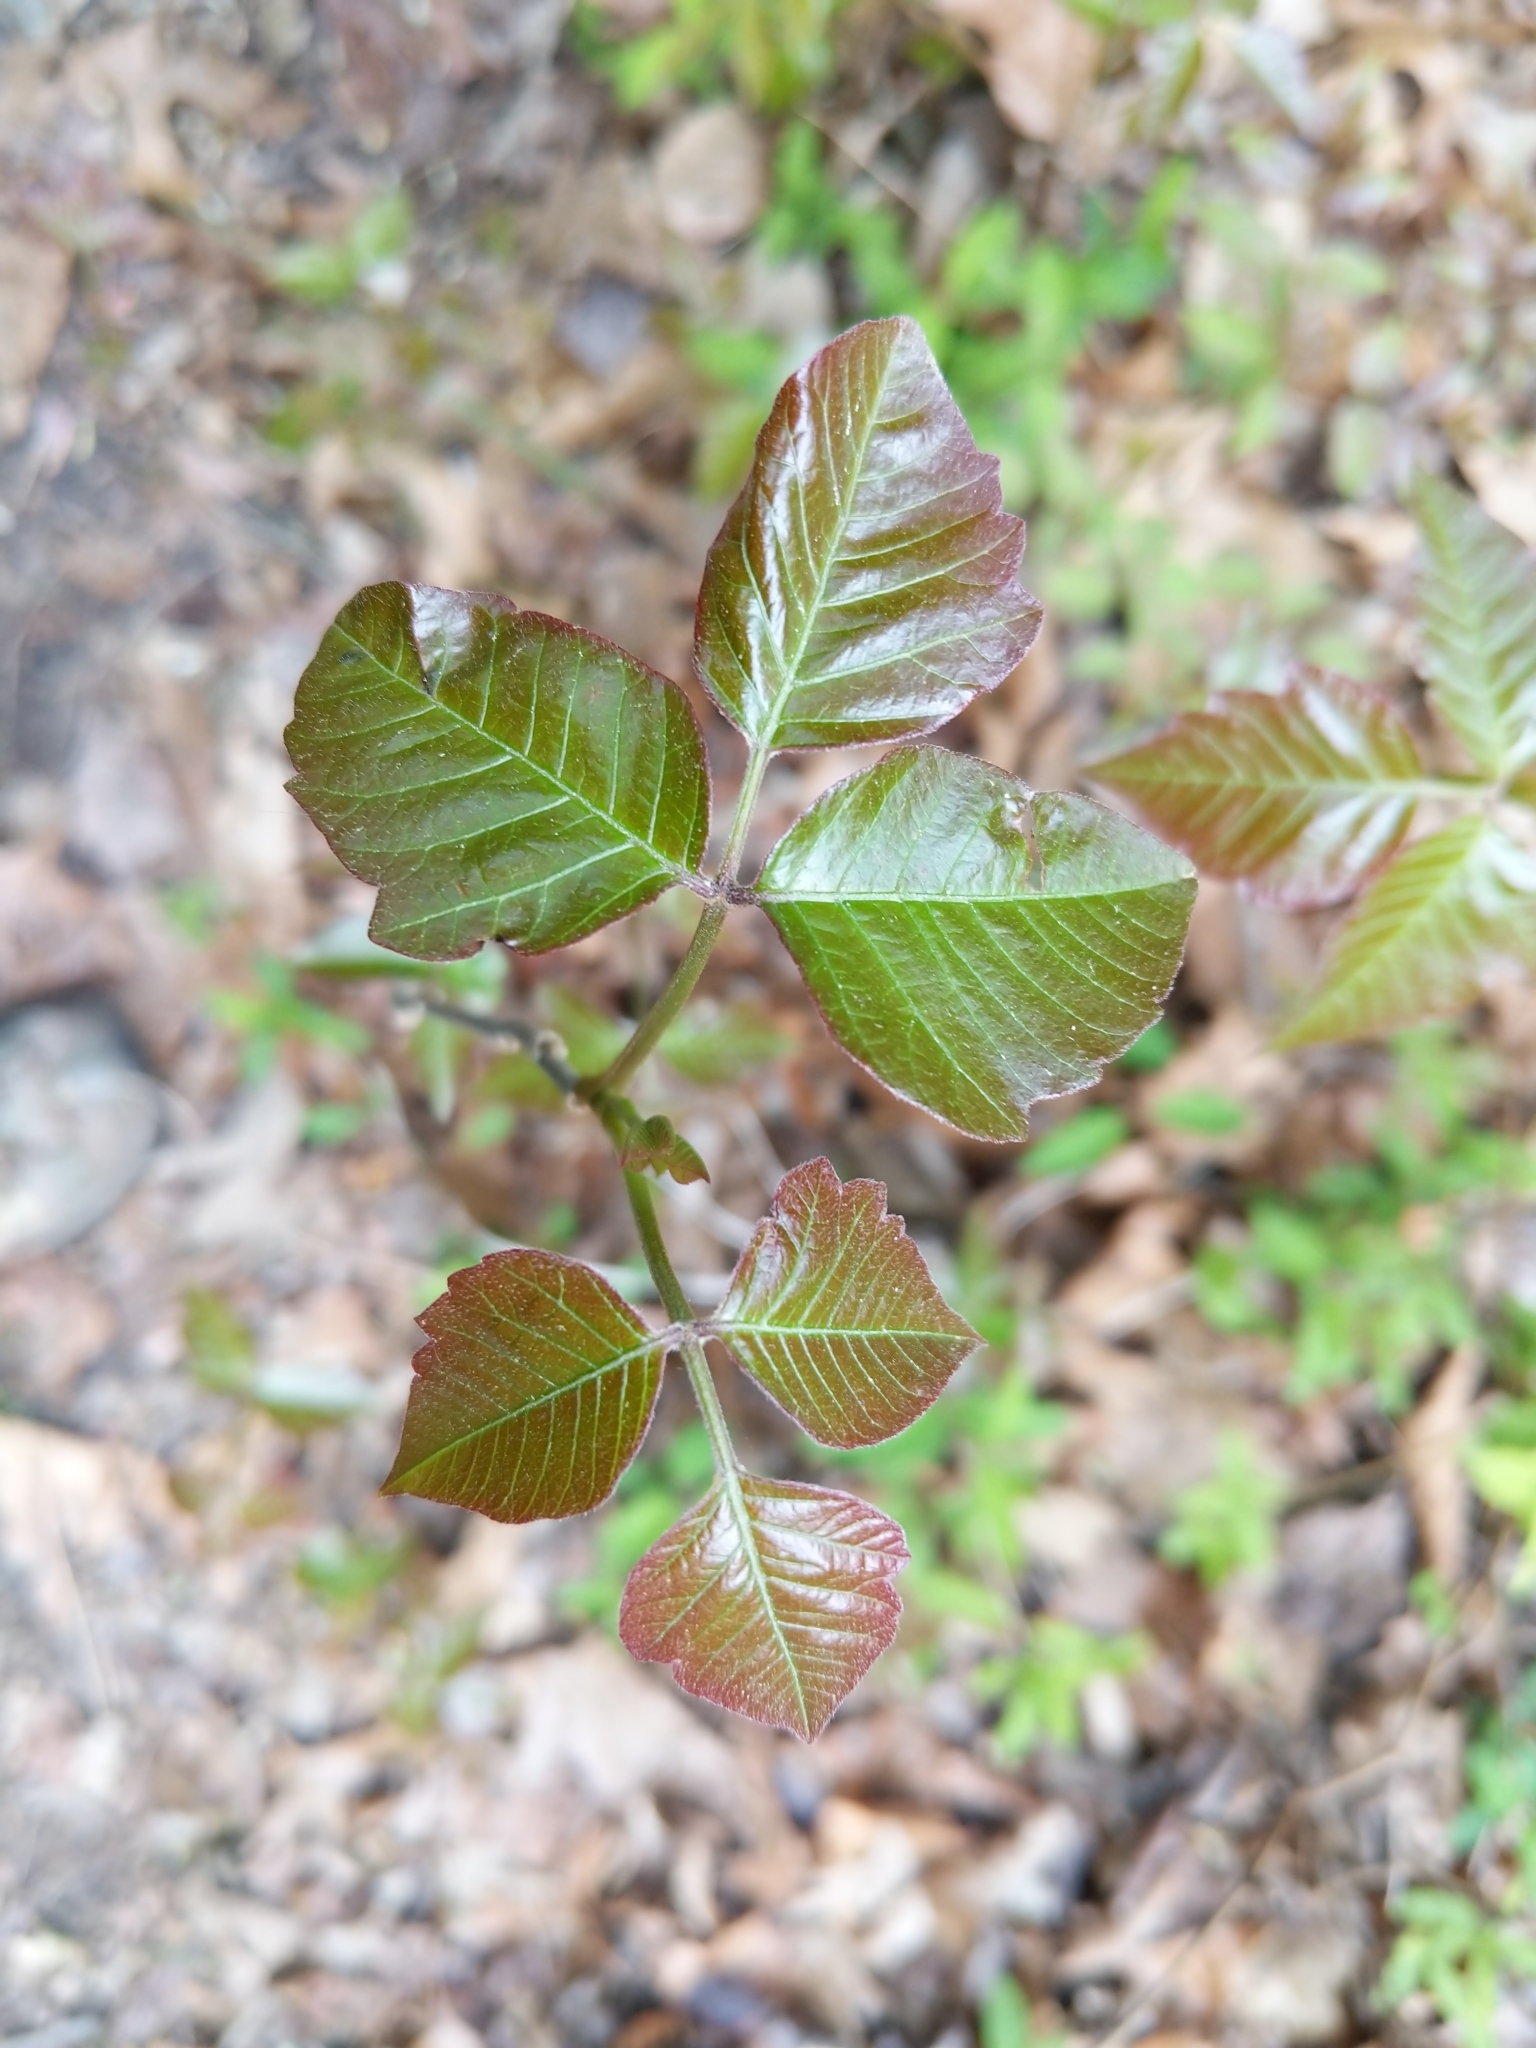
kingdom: Plantae
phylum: Tracheophyta
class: Magnoliopsida
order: Sapindales
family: Anacardiaceae
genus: Toxicodendron
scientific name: Toxicodendron radicans
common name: Poison ivy
